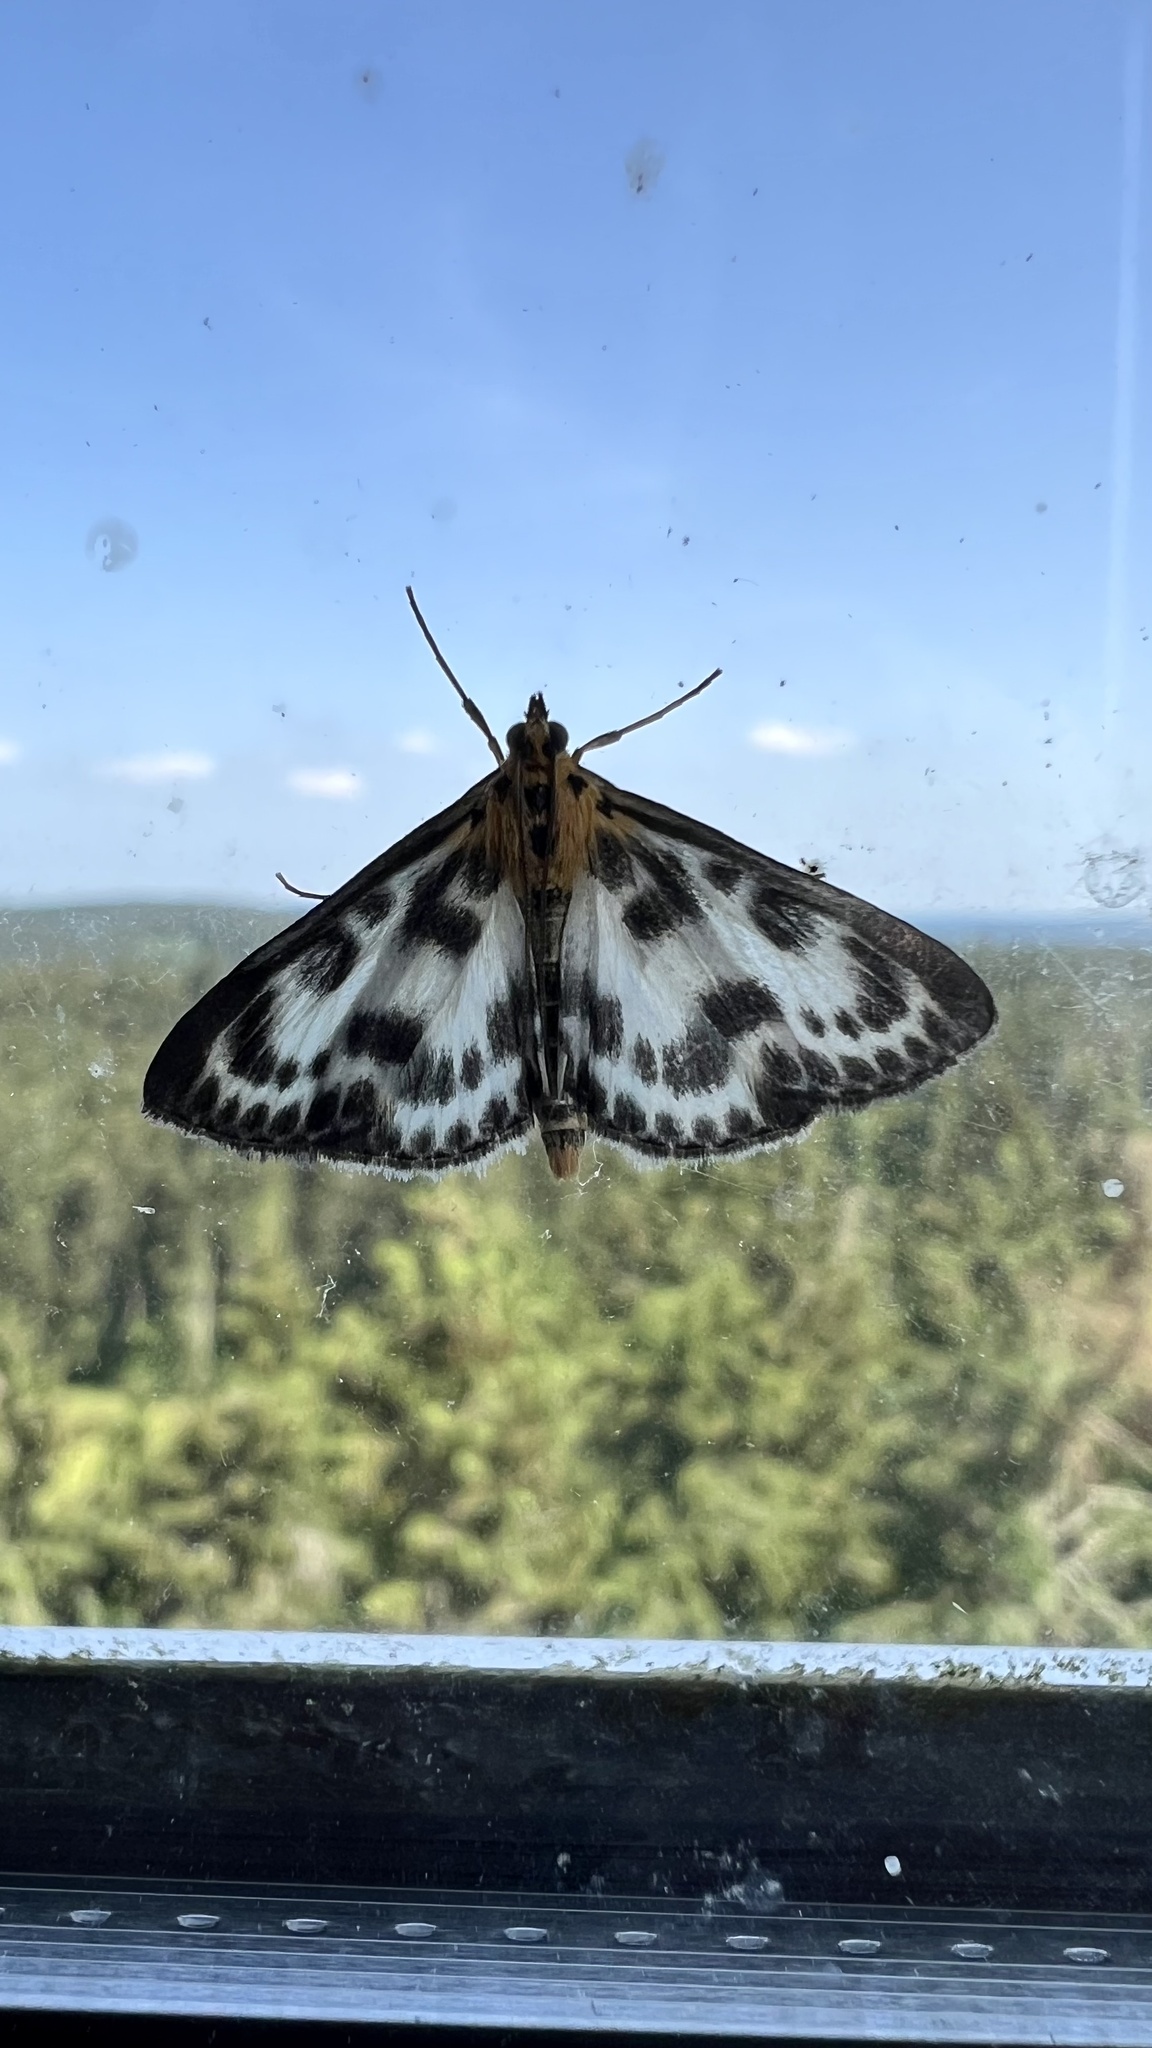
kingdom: Animalia
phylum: Arthropoda
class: Insecta
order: Lepidoptera
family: Crambidae
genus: Anania
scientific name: Anania hortulata
